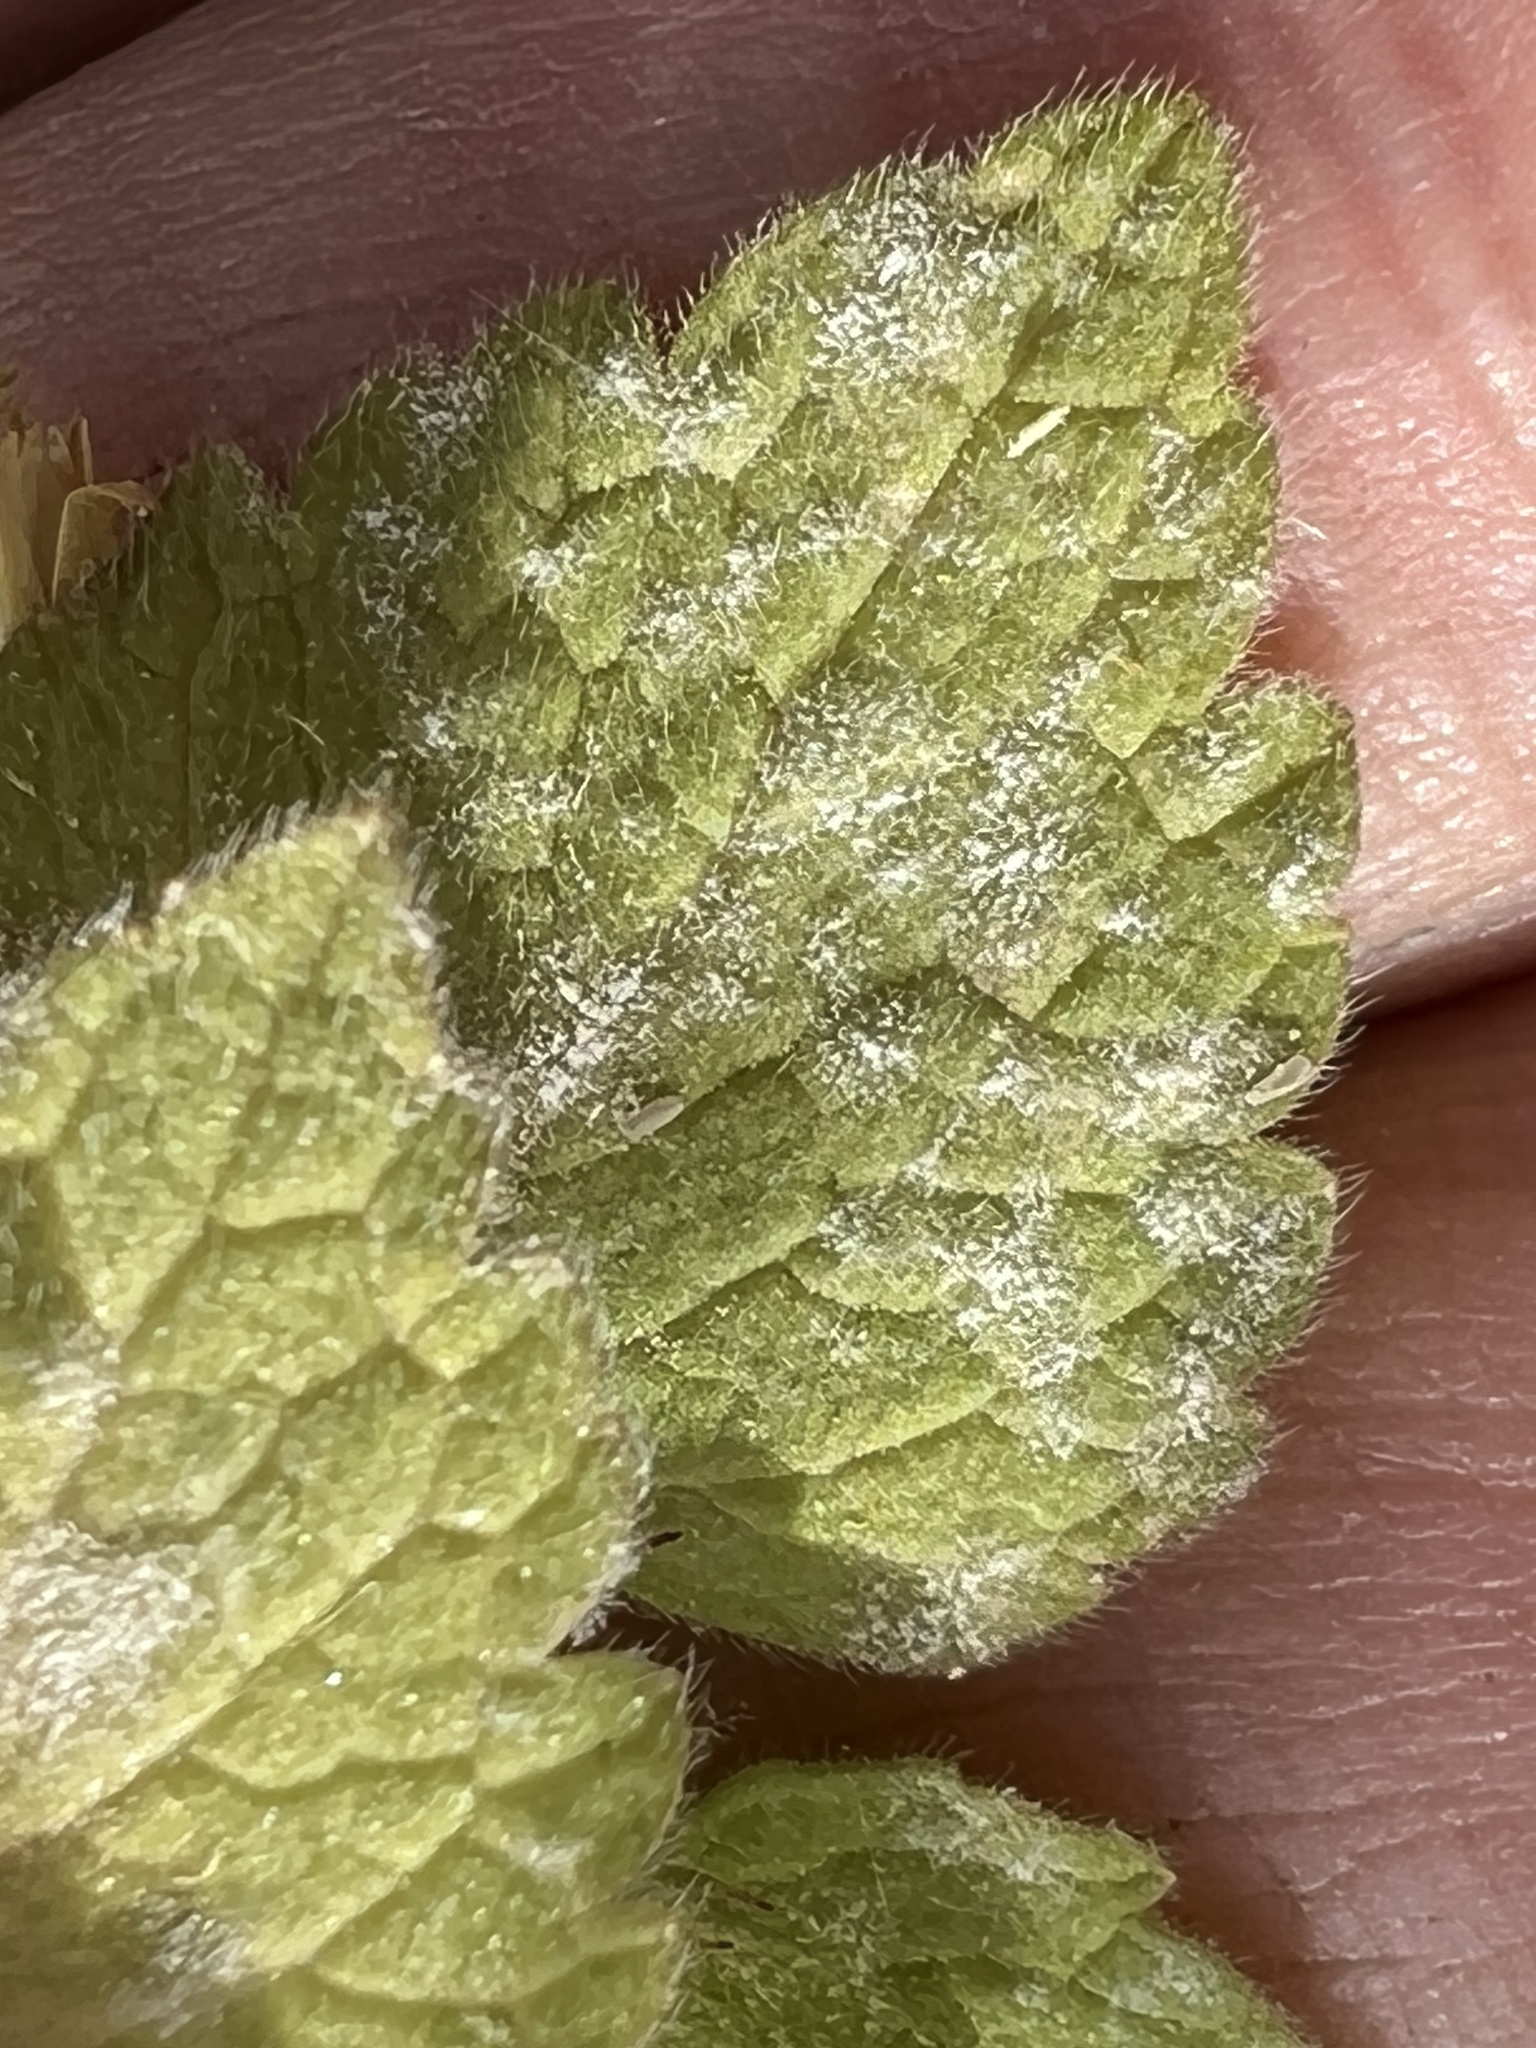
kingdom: Fungi
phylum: Ascomycota
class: Leotiomycetes
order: Helotiales
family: Erysiphaceae
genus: Neoerysiphe
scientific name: Neoerysiphe galeopsidis
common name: Mint mildew
